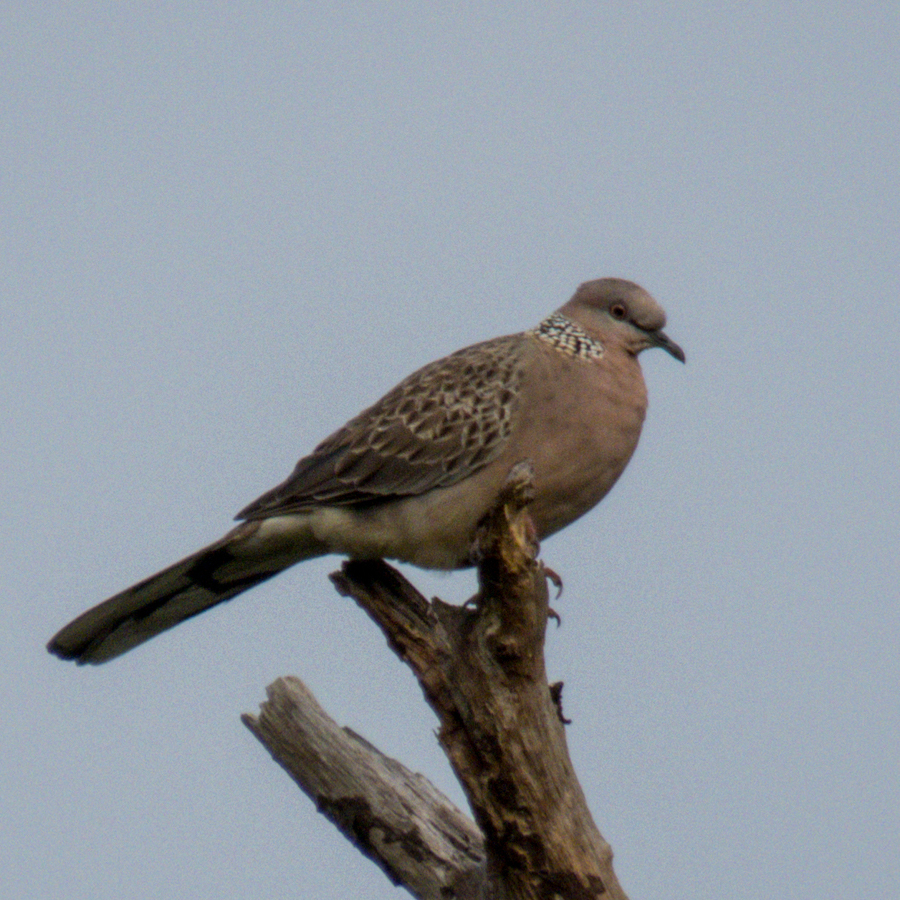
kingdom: Animalia
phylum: Chordata
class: Aves
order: Columbiformes
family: Columbidae
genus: Spilopelia
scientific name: Spilopelia chinensis
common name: Spotted dove
